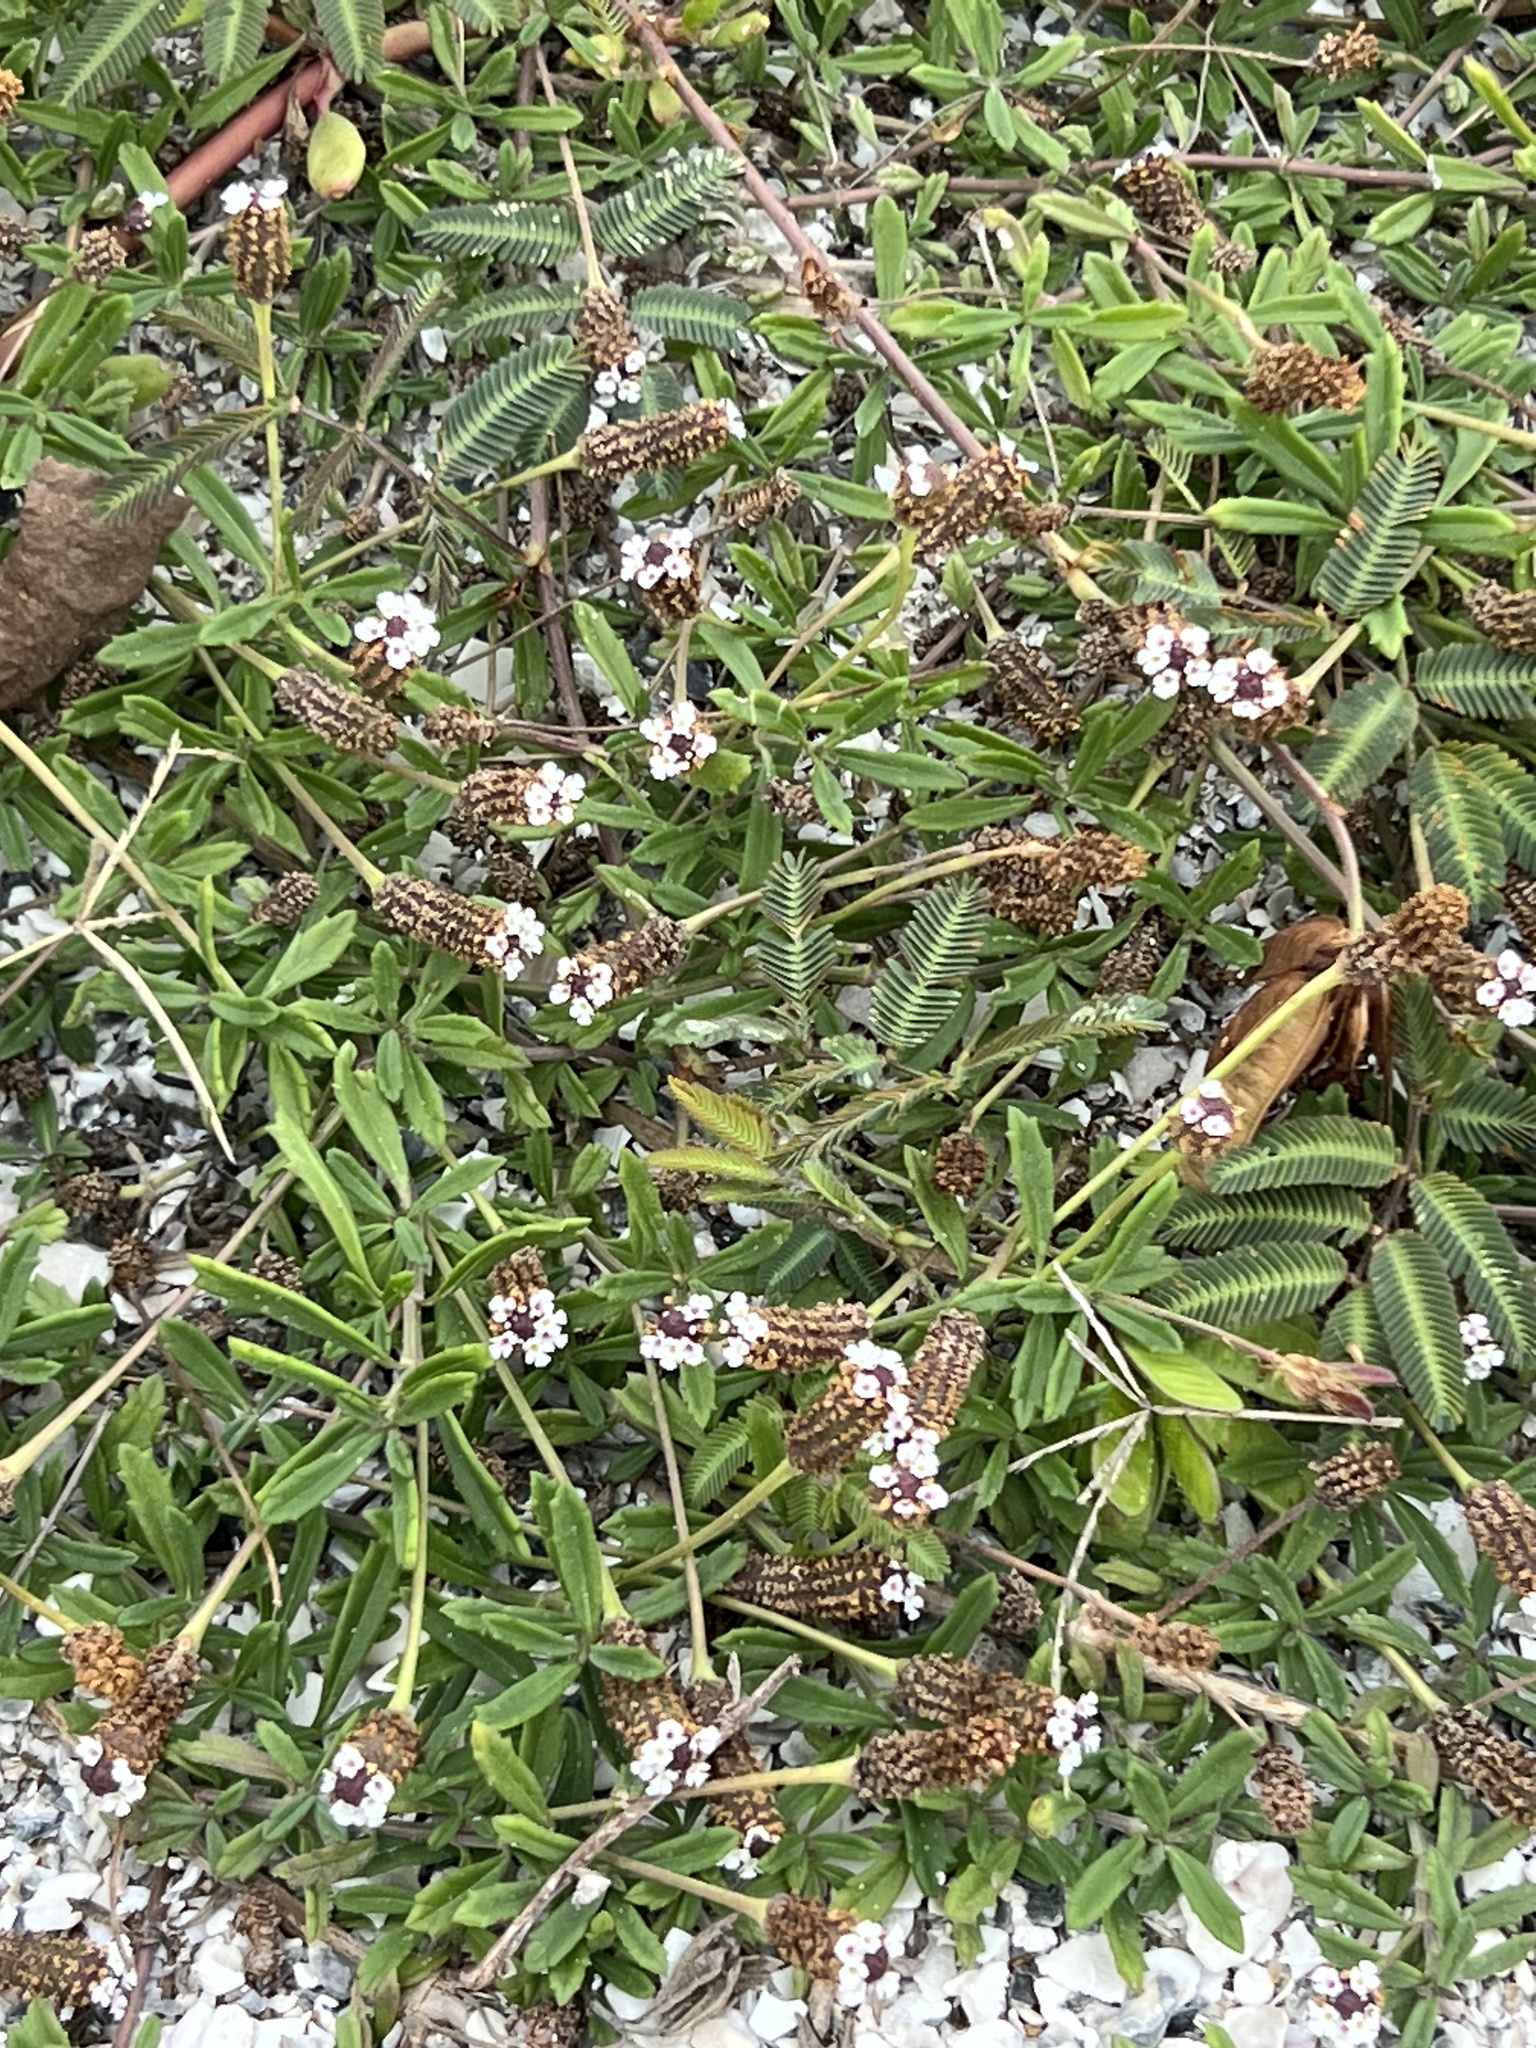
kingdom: Plantae
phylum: Tracheophyta
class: Magnoliopsida
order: Lamiales
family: Verbenaceae
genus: Phyla
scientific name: Phyla nodiflora
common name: Frogfruit
